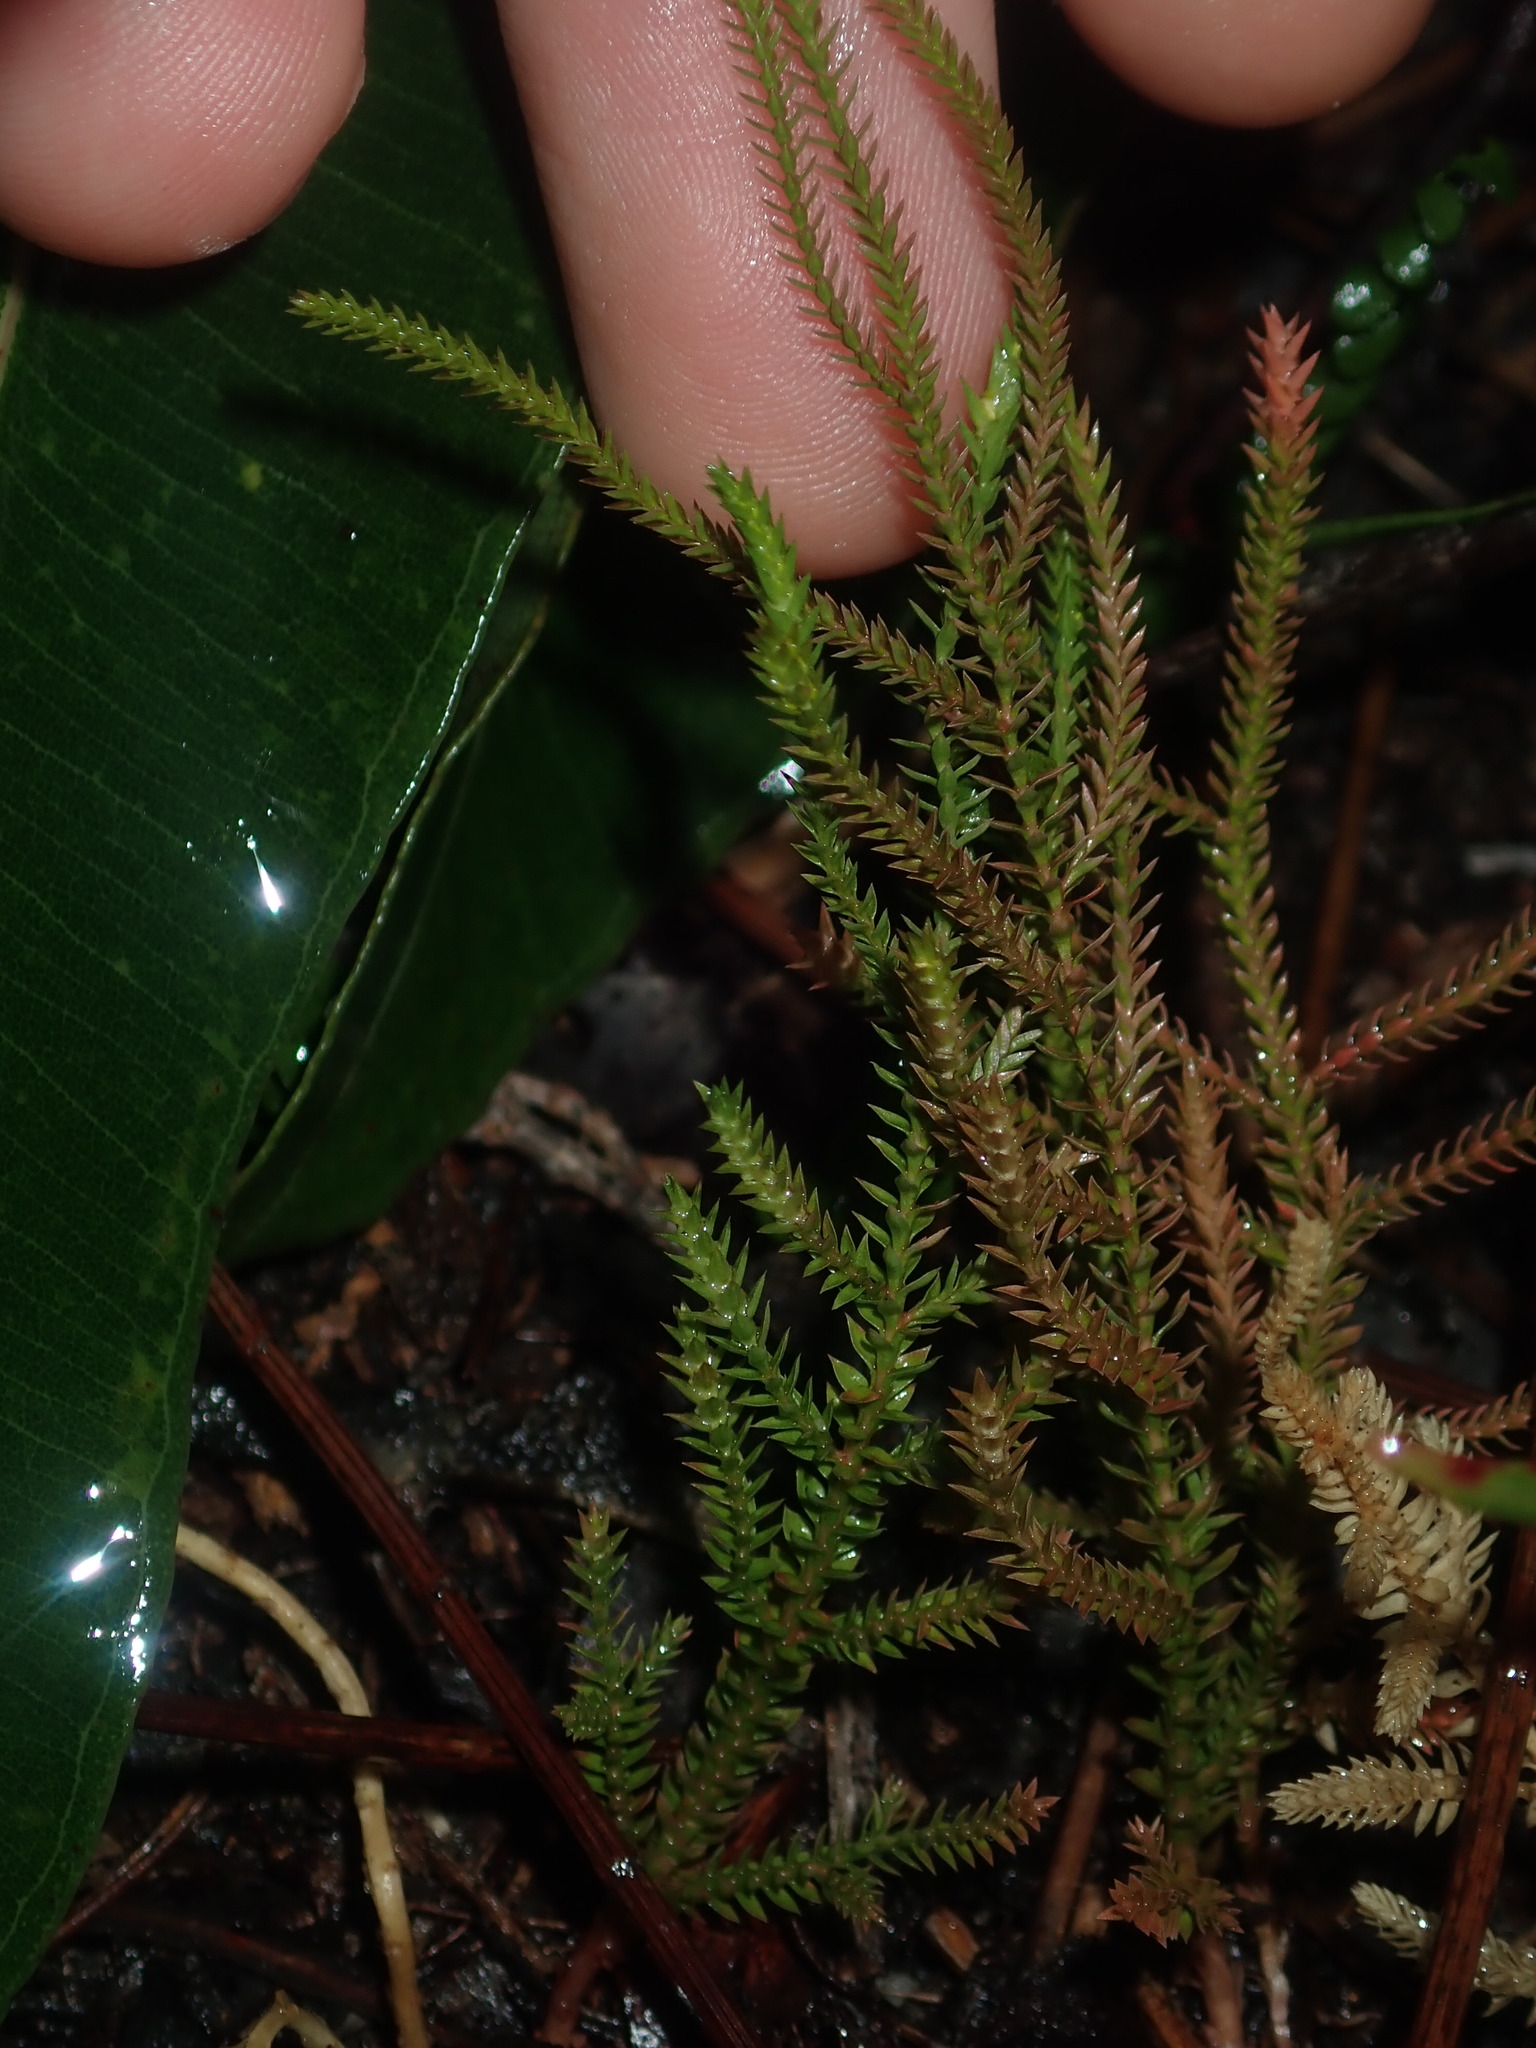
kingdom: Plantae
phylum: Tracheophyta
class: Lycopodiopsida
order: Selaginellales
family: Selaginellaceae
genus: Selaginella
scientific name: Selaginella uliginosa
